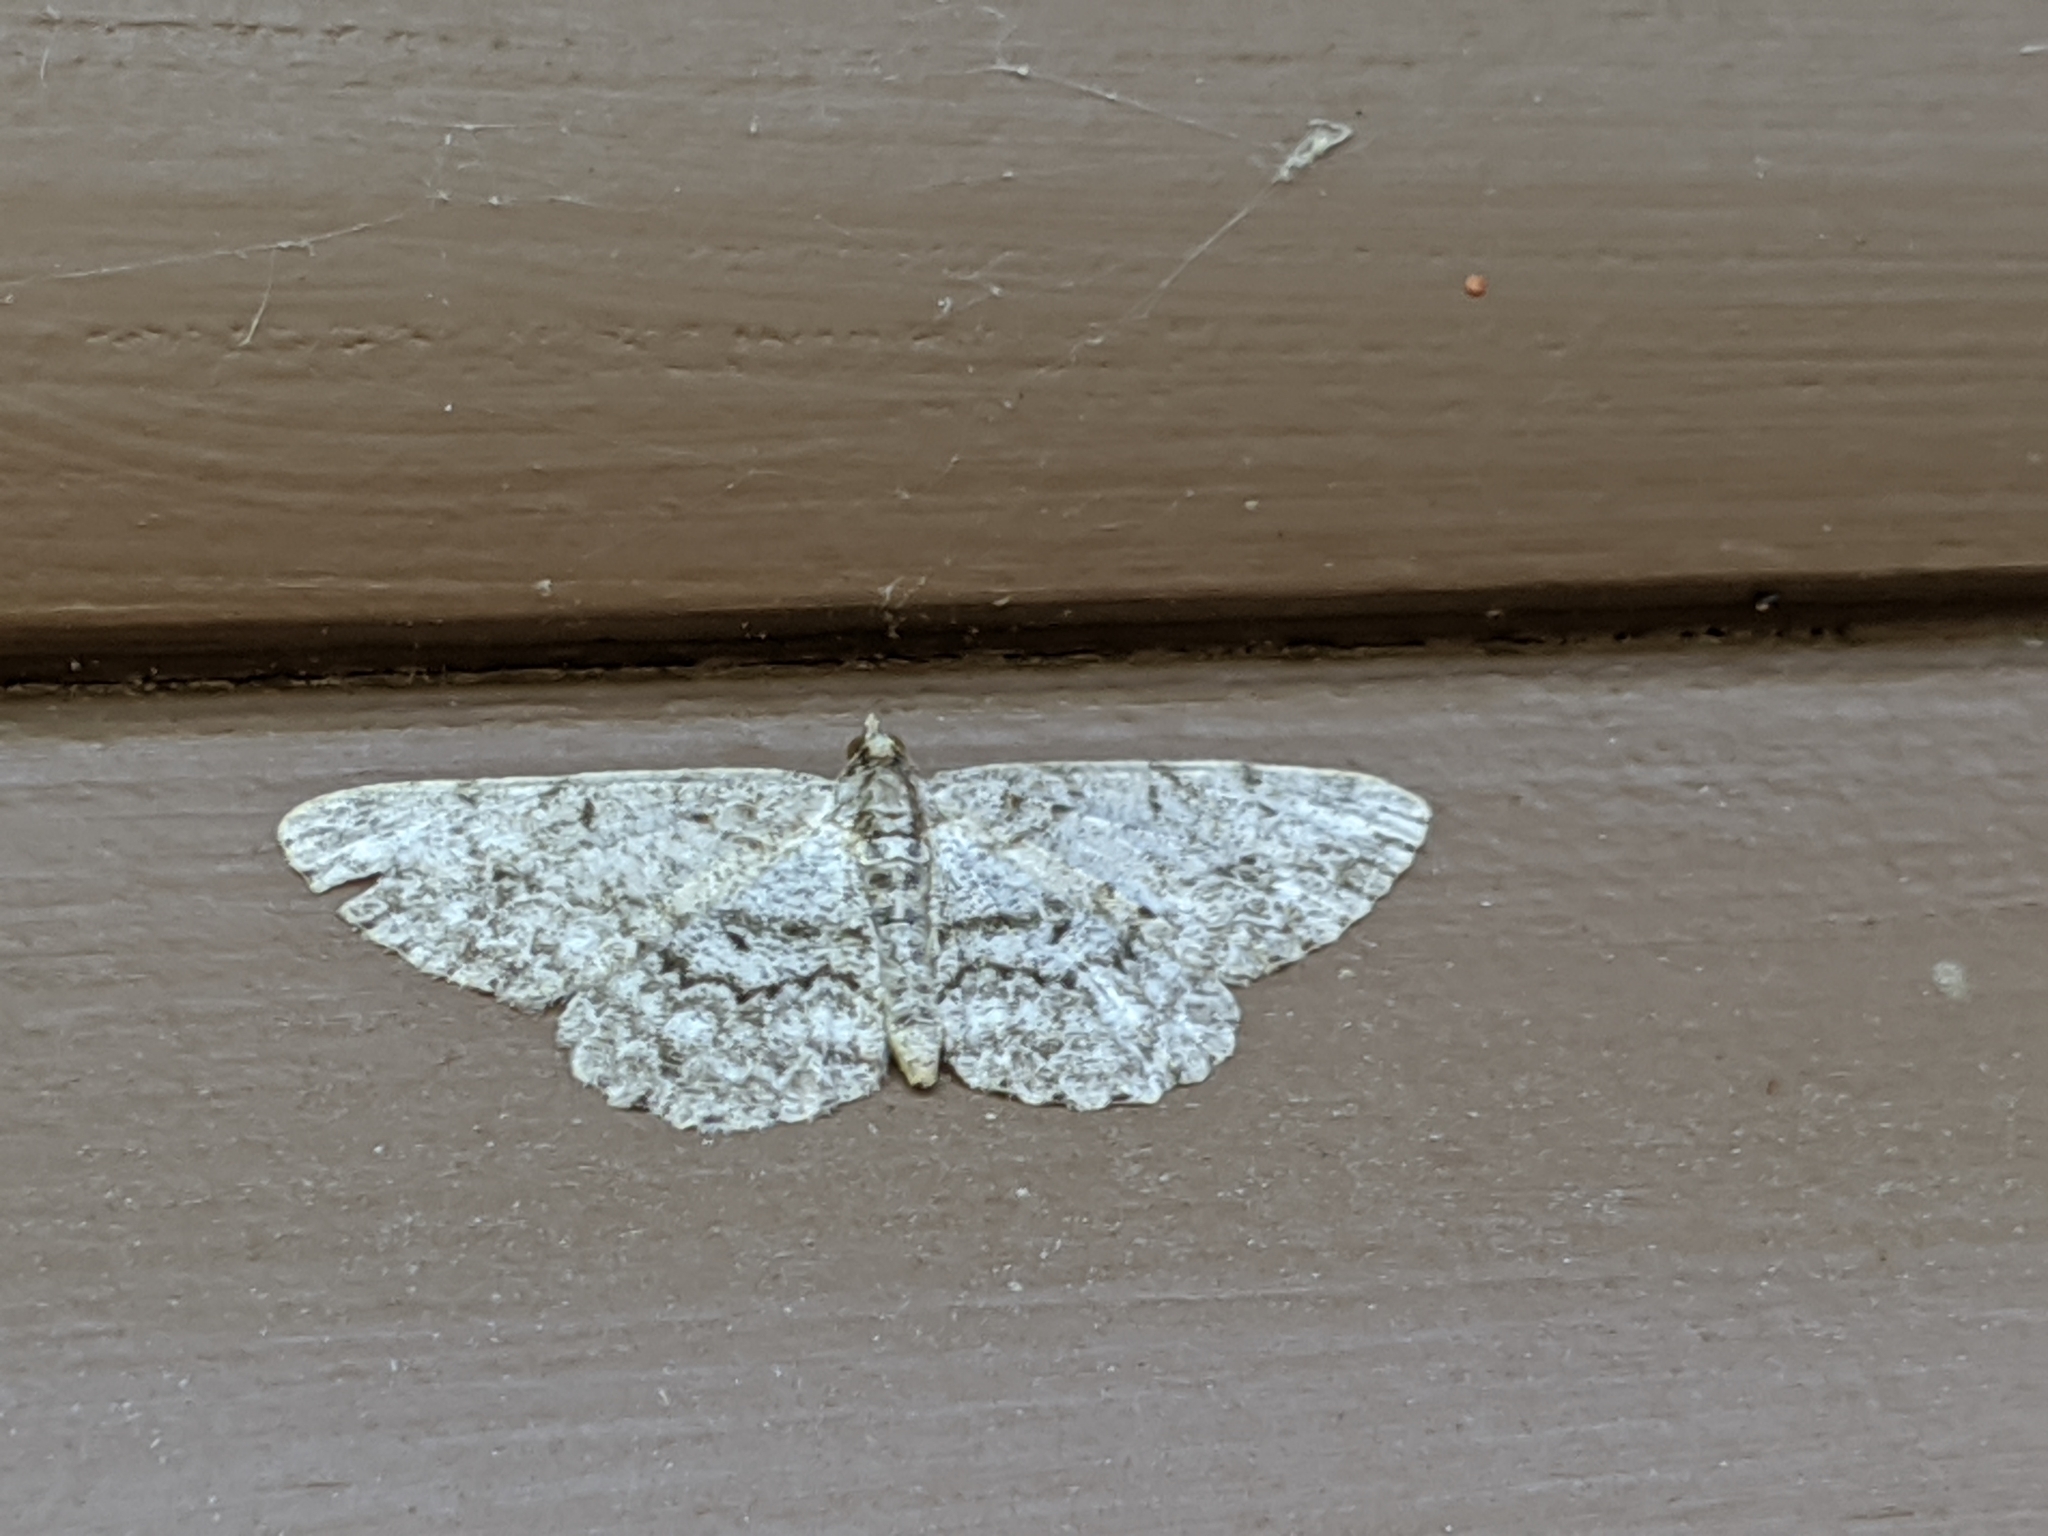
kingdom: Animalia
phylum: Arthropoda
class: Insecta
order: Lepidoptera
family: Geometridae
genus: Protoboarmia
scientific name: Protoboarmia porcelaria
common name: Porcelain gray
